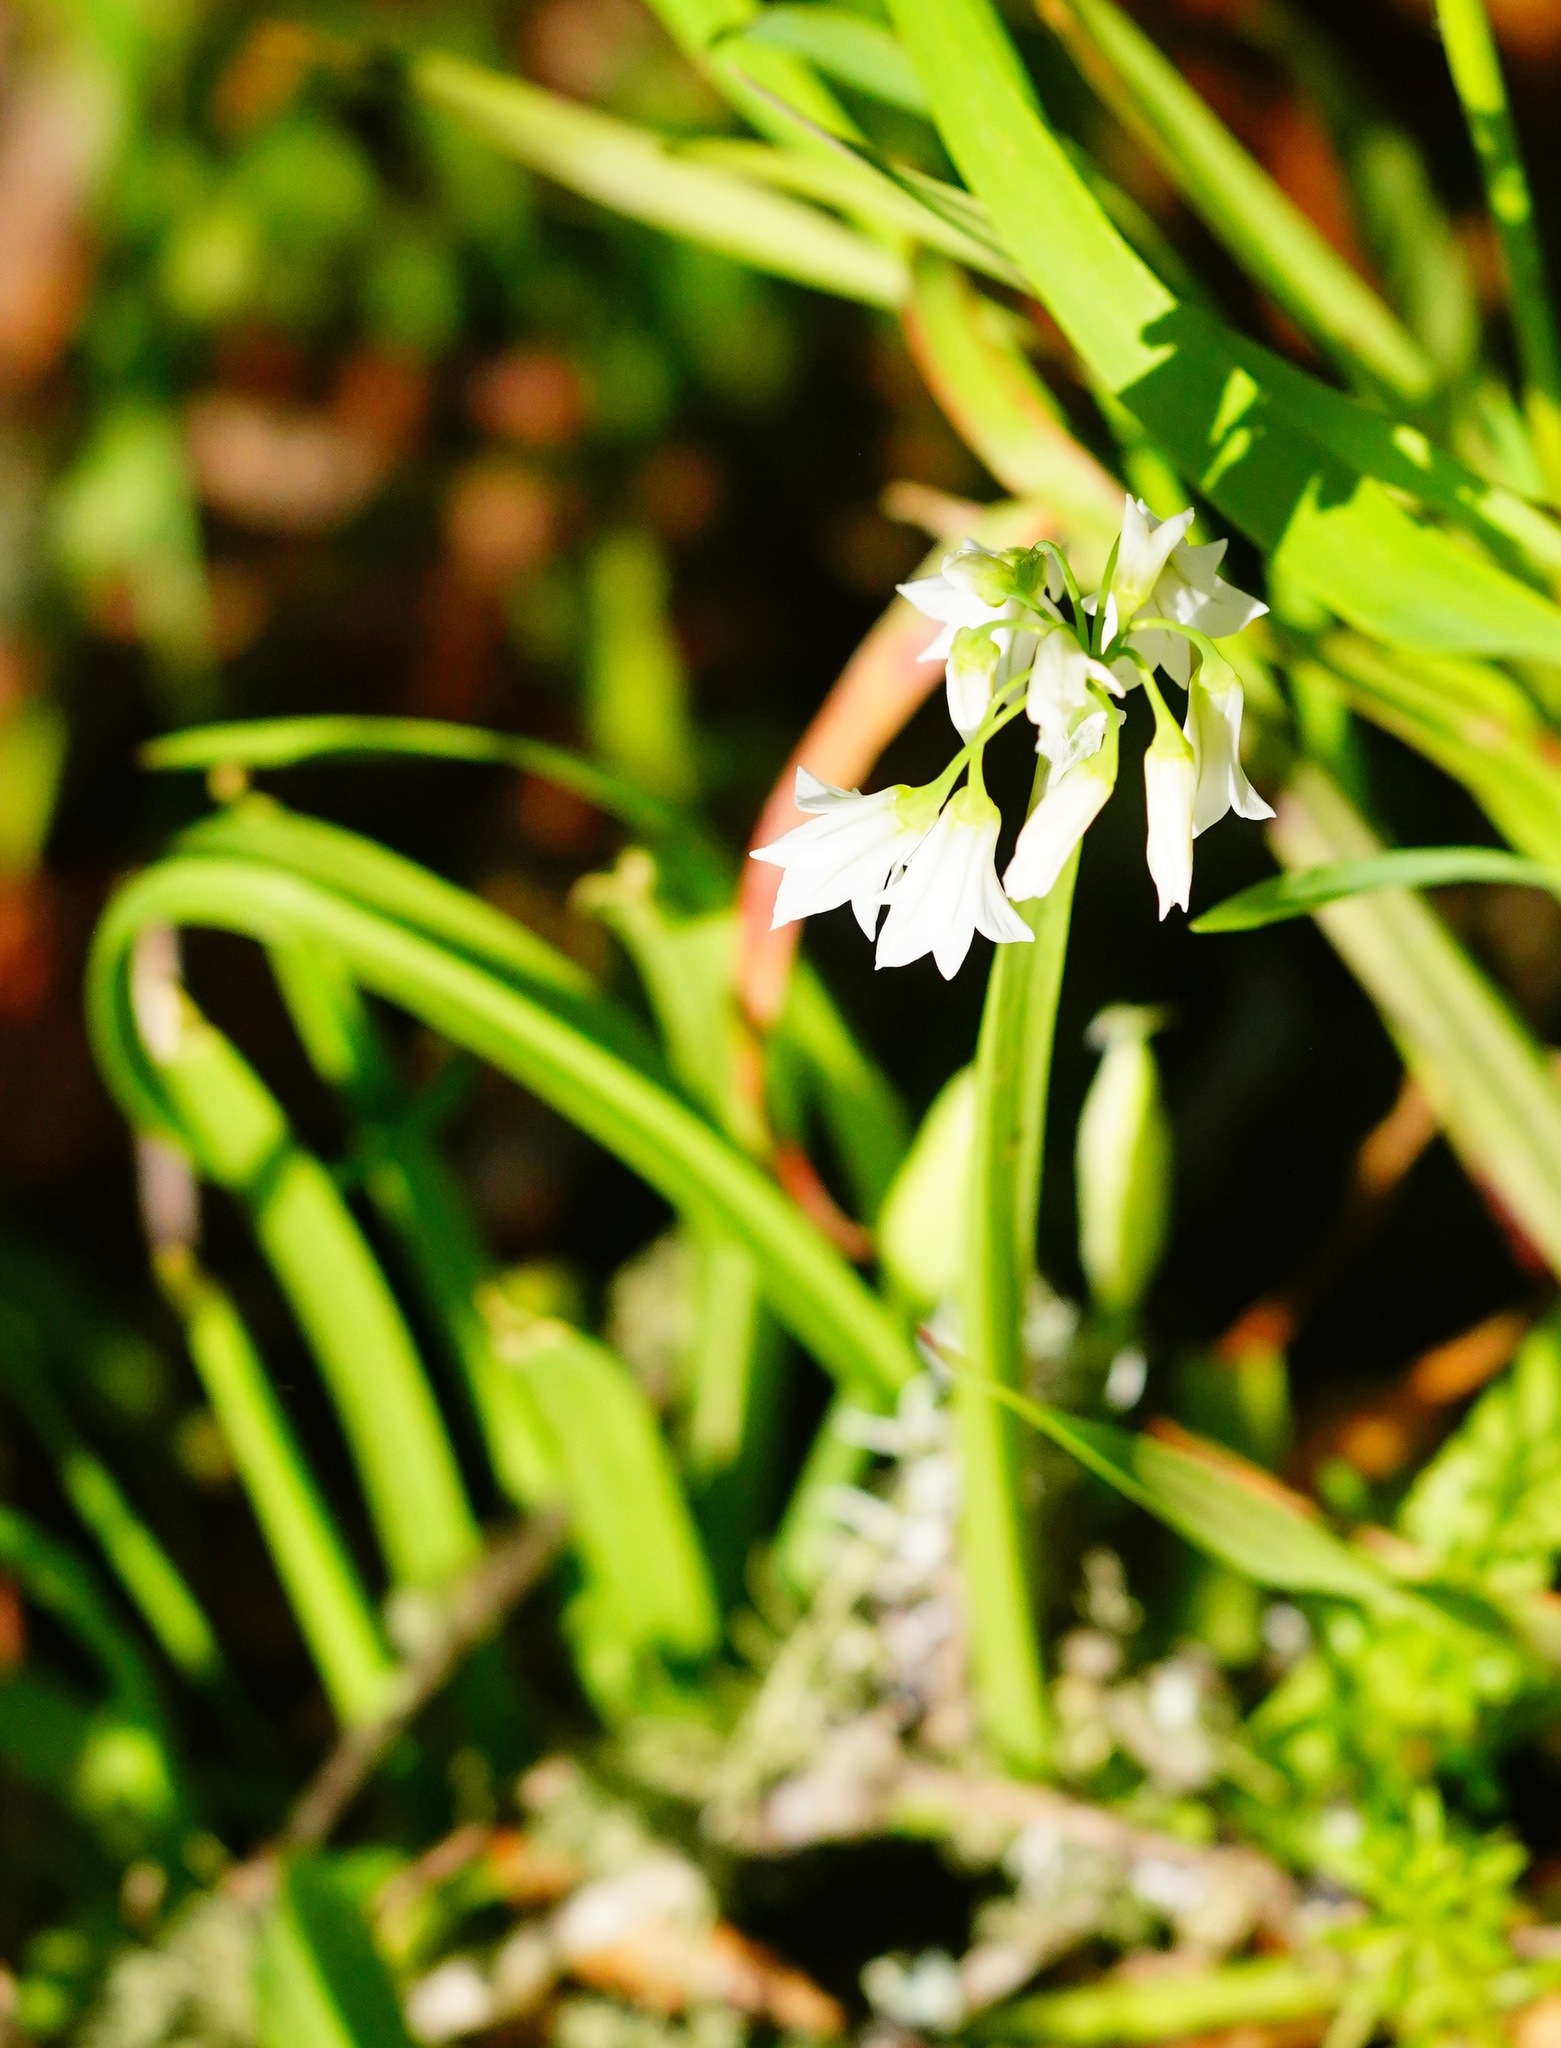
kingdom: Plantae
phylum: Tracheophyta
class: Liliopsida
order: Asparagales
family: Amaryllidaceae
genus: Allium
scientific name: Allium triquetrum
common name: Three-cornered garlic
